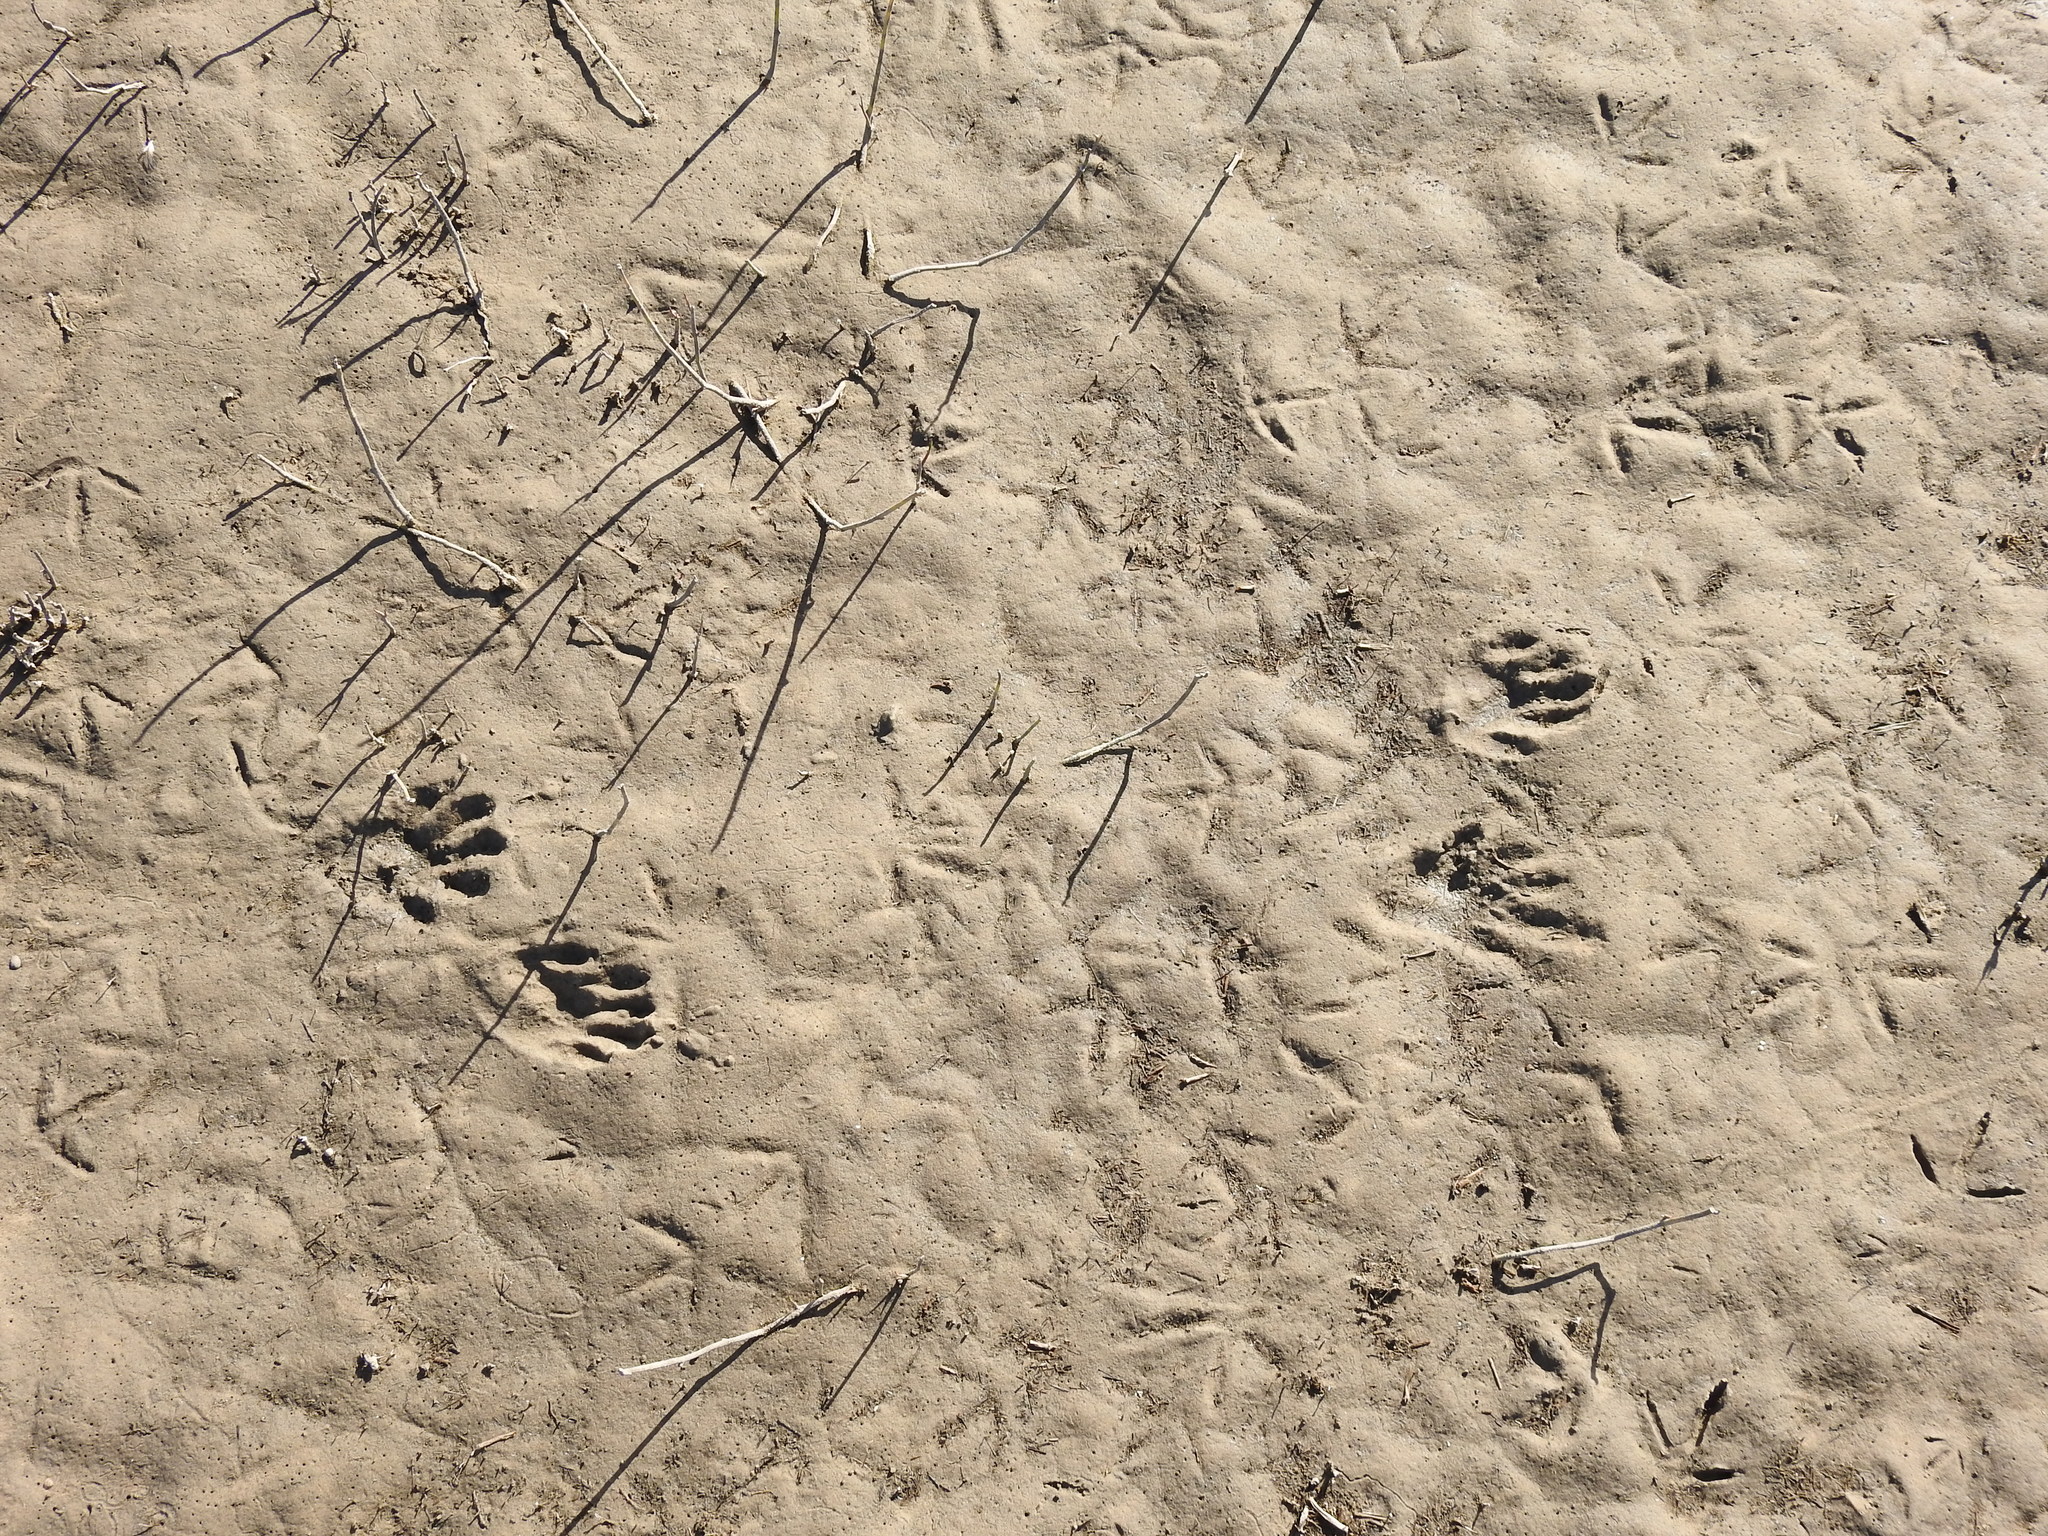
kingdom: Animalia
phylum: Chordata
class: Mammalia
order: Carnivora
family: Procyonidae
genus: Procyon
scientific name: Procyon cancrivorus
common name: Crab-eating raccoon
